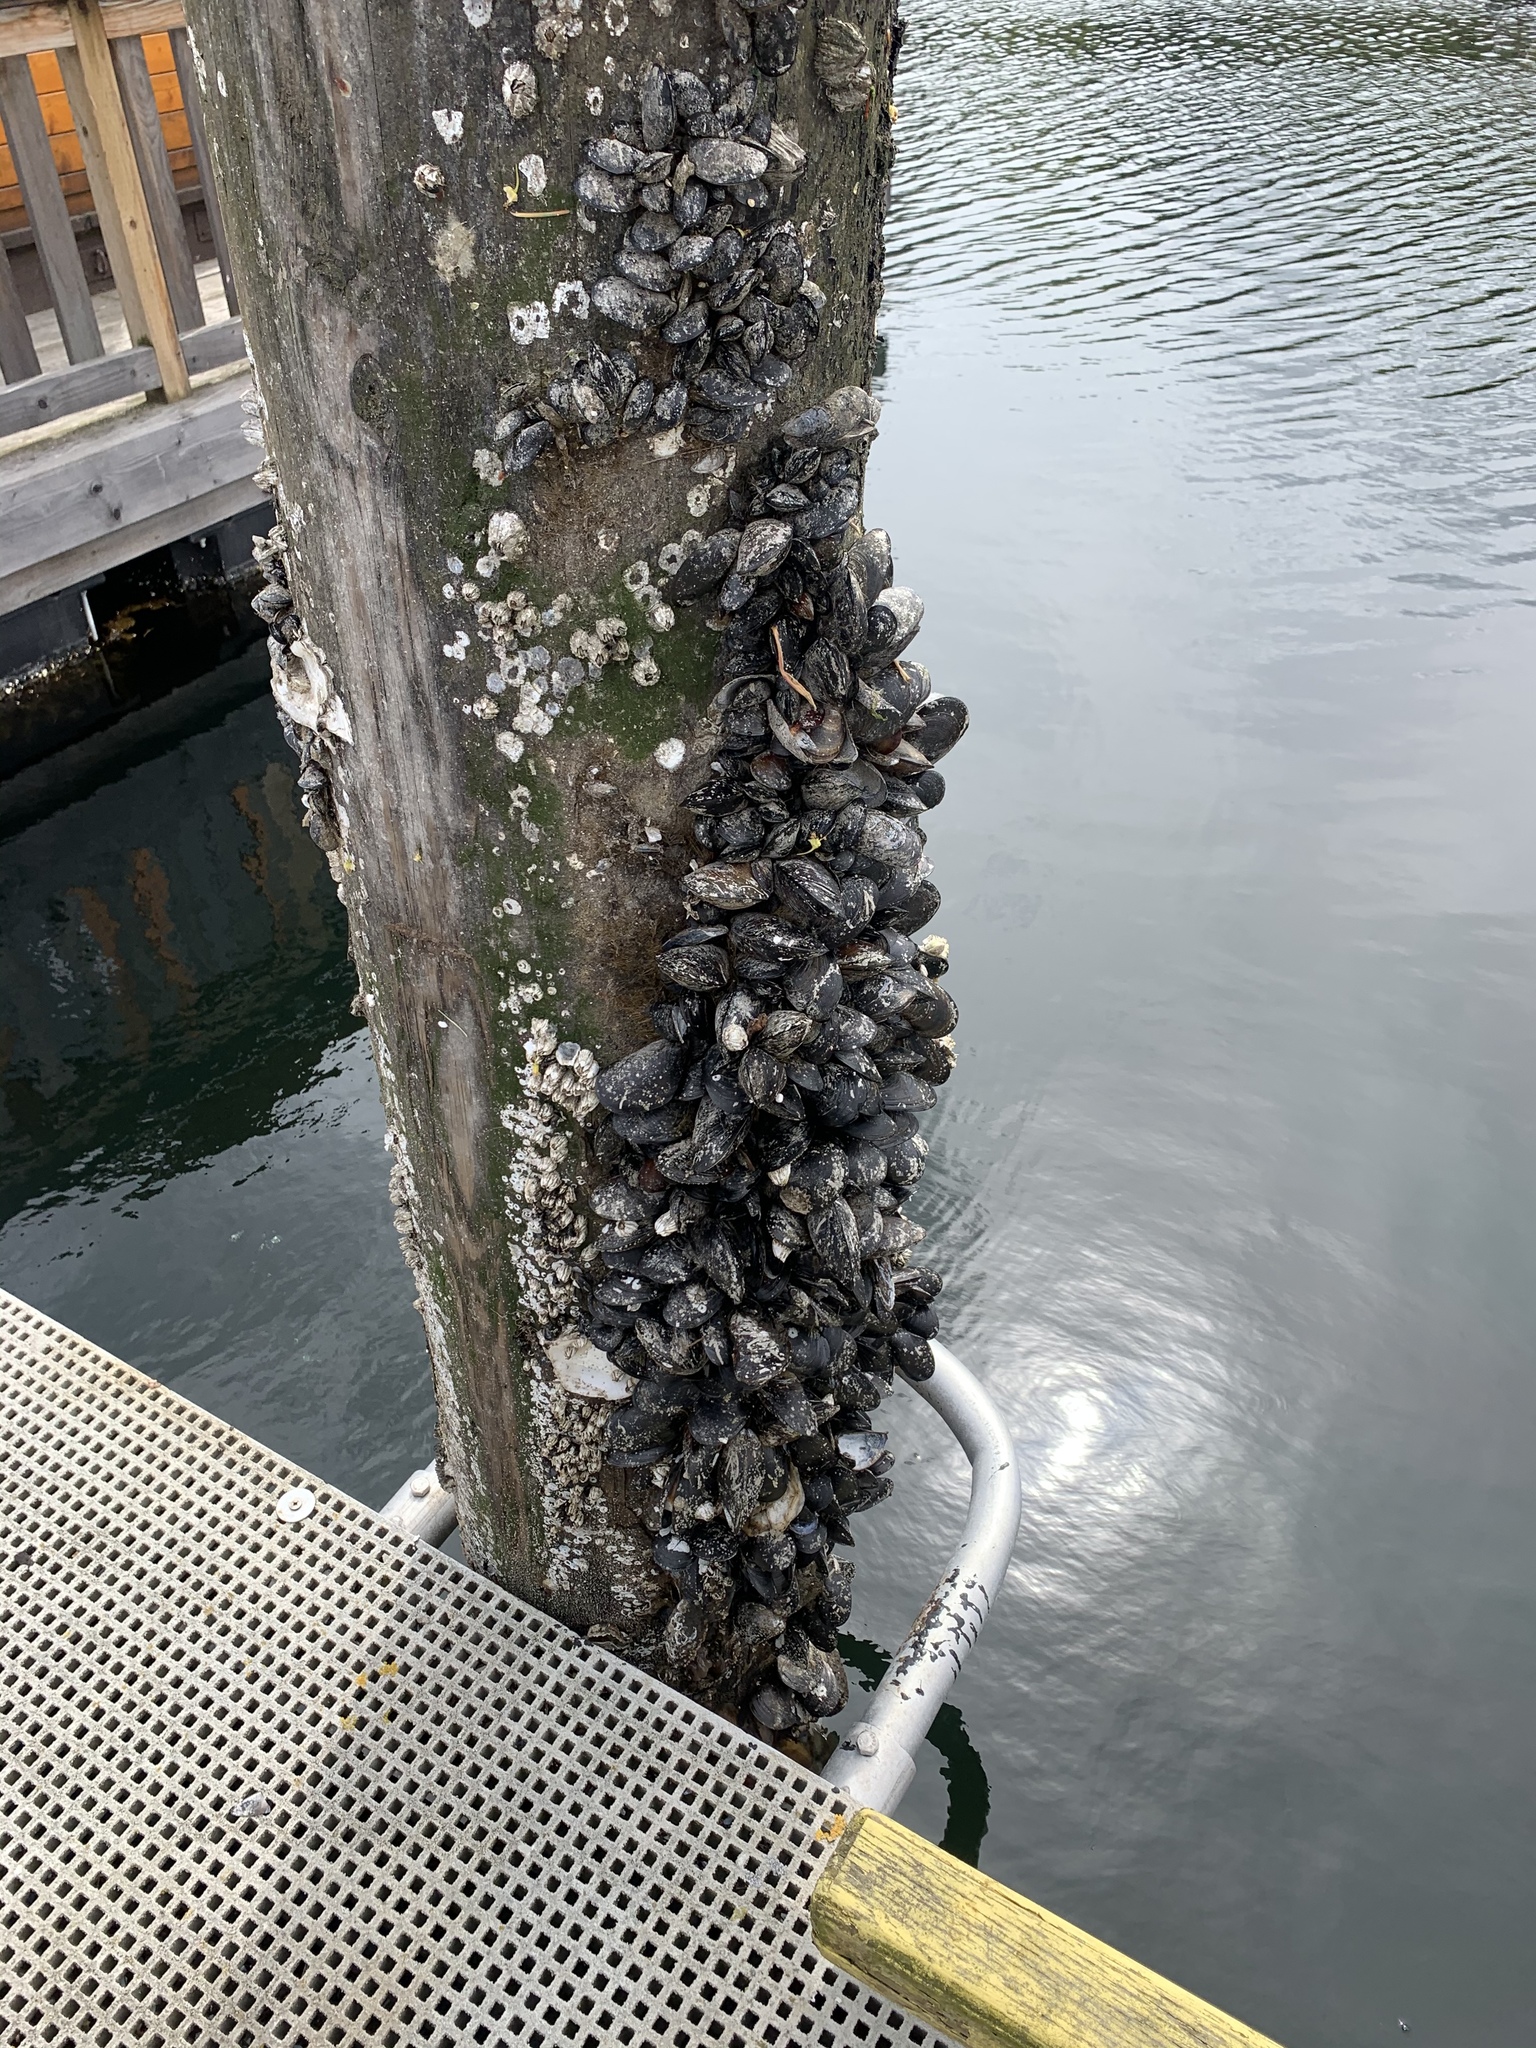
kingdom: Animalia
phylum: Mollusca
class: Bivalvia
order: Mytilida
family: Mytilidae
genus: Mytilus
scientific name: Mytilus
